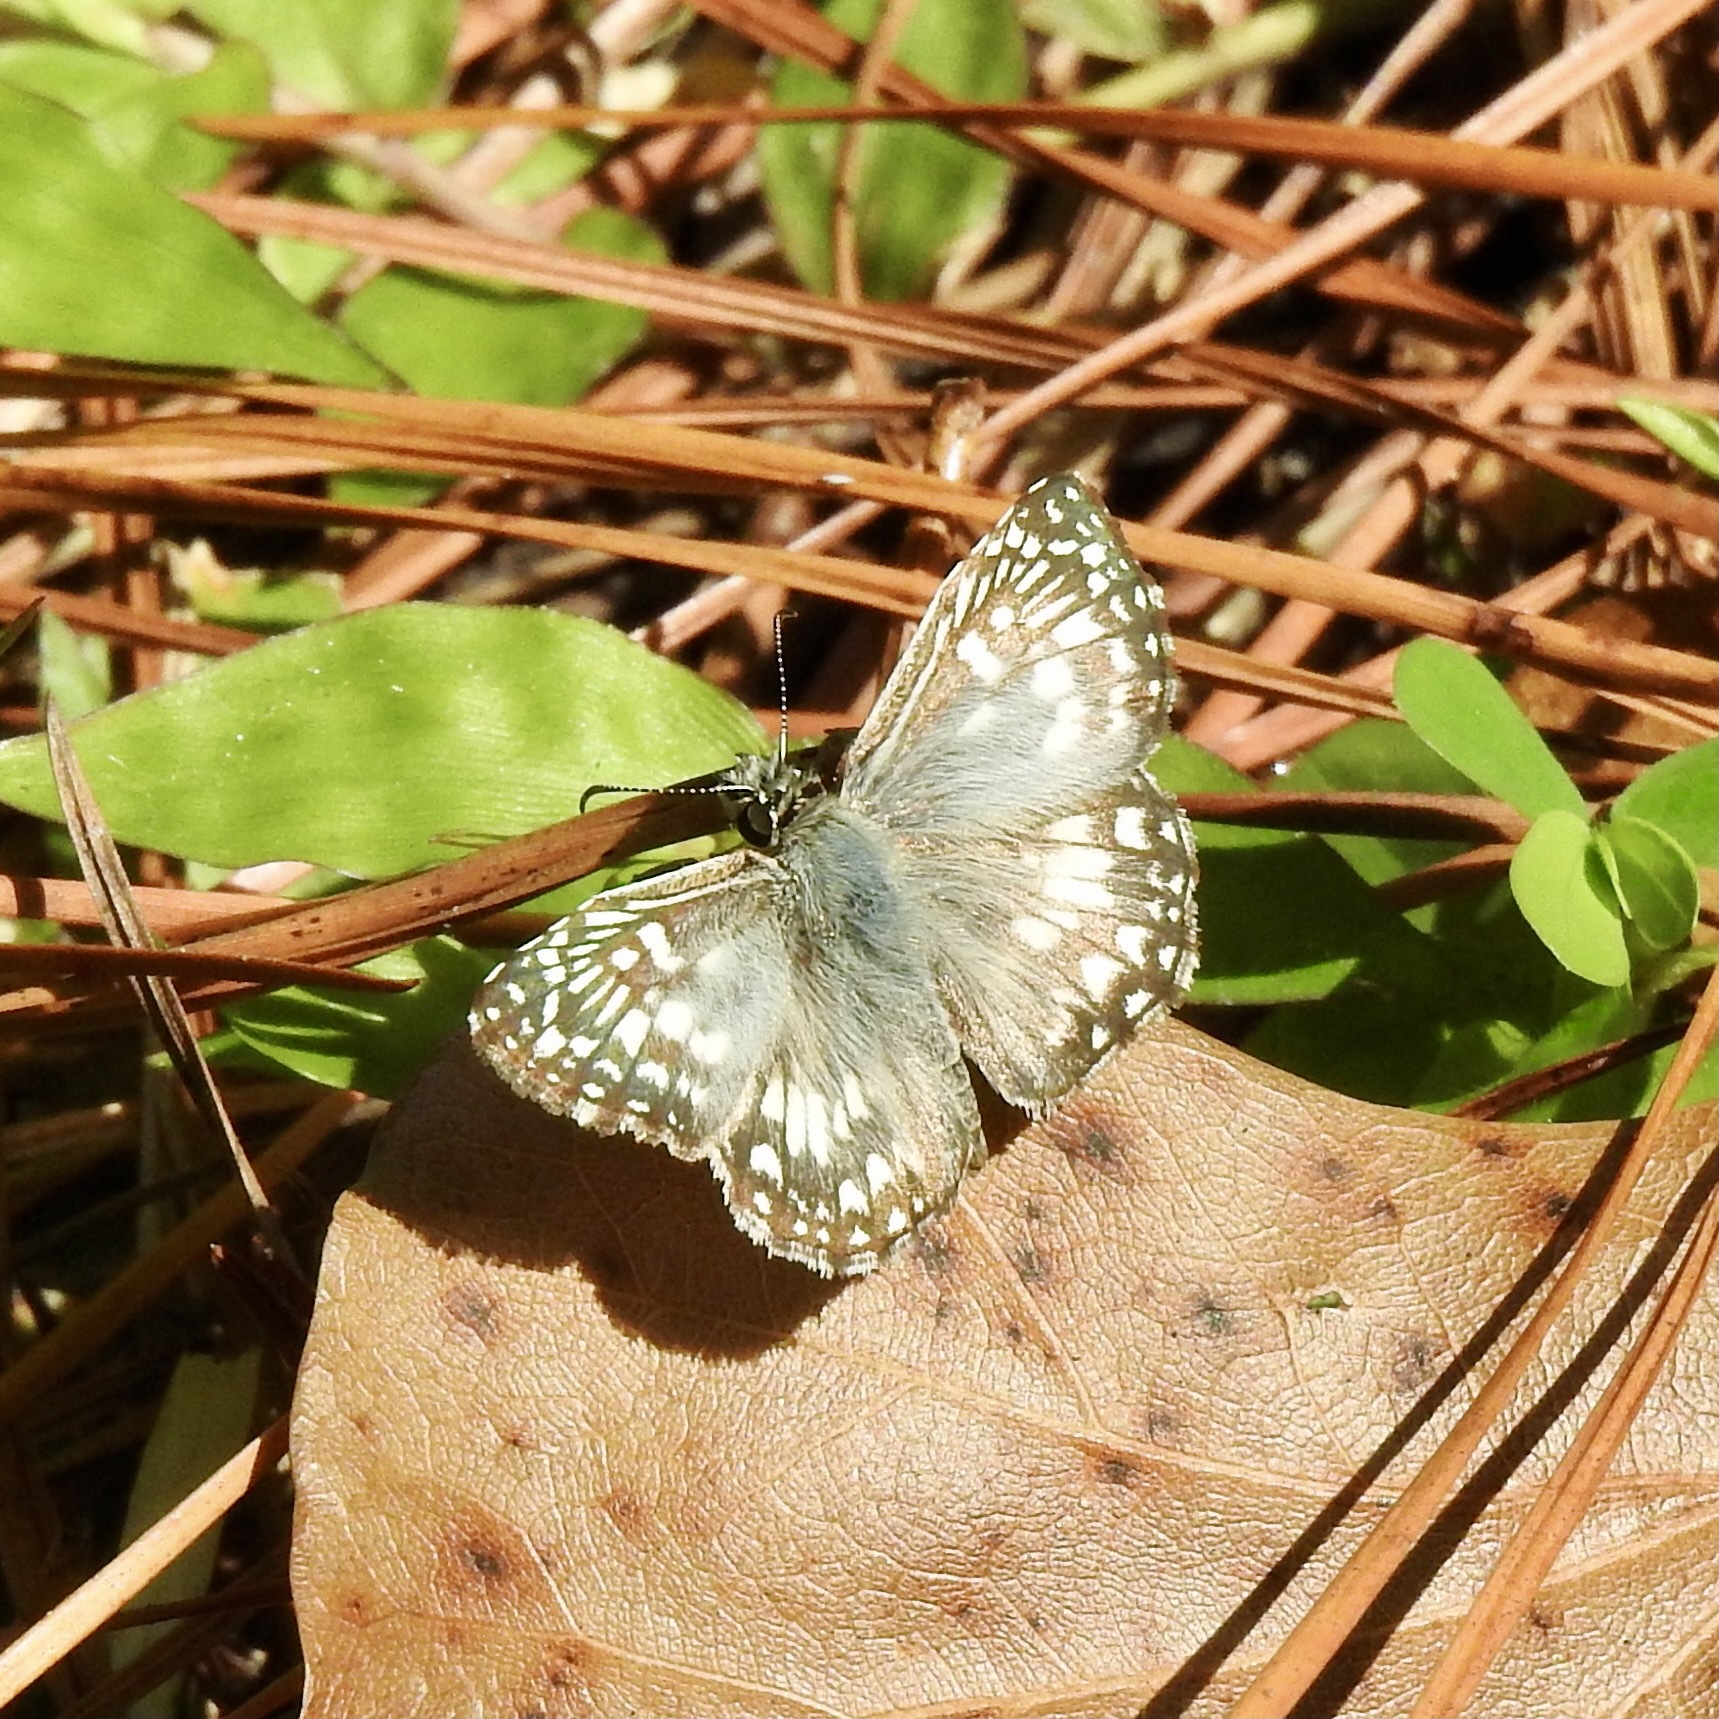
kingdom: Animalia
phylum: Arthropoda
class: Insecta
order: Lepidoptera
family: Hesperiidae
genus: Pyrgus
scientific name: Pyrgus oileus
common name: Tropical checkered-skipper
